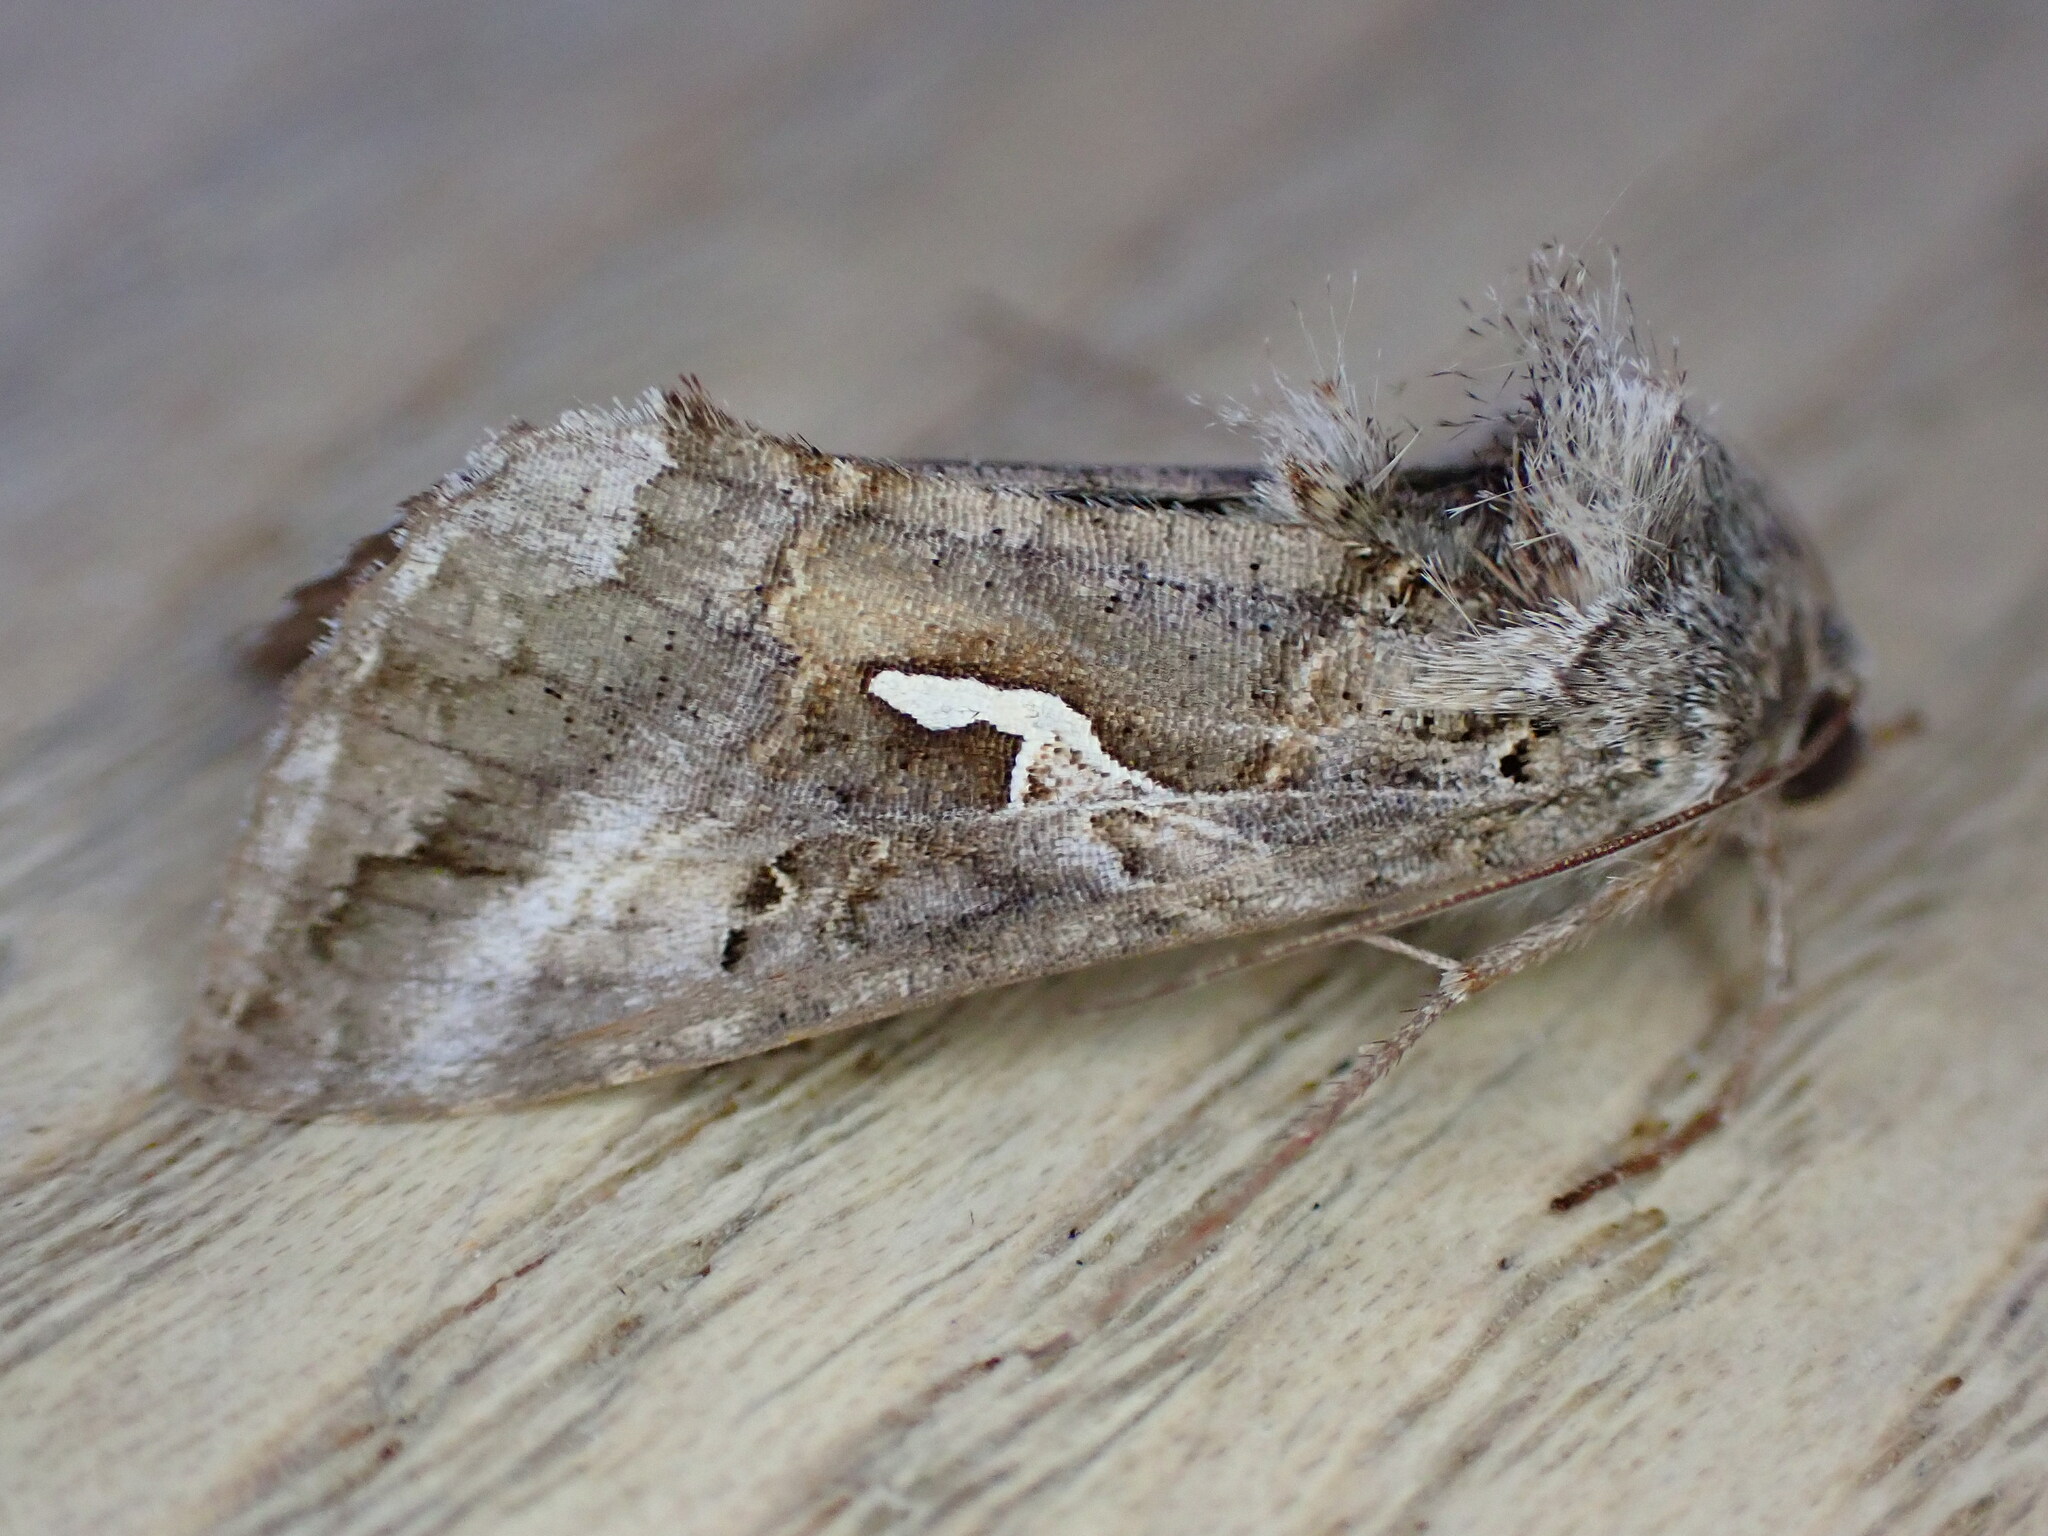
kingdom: Animalia
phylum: Arthropoda
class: Insecta
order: Lepidoptera
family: Noctuidae
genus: Autographa
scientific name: Autographa gamma
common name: Silver y
